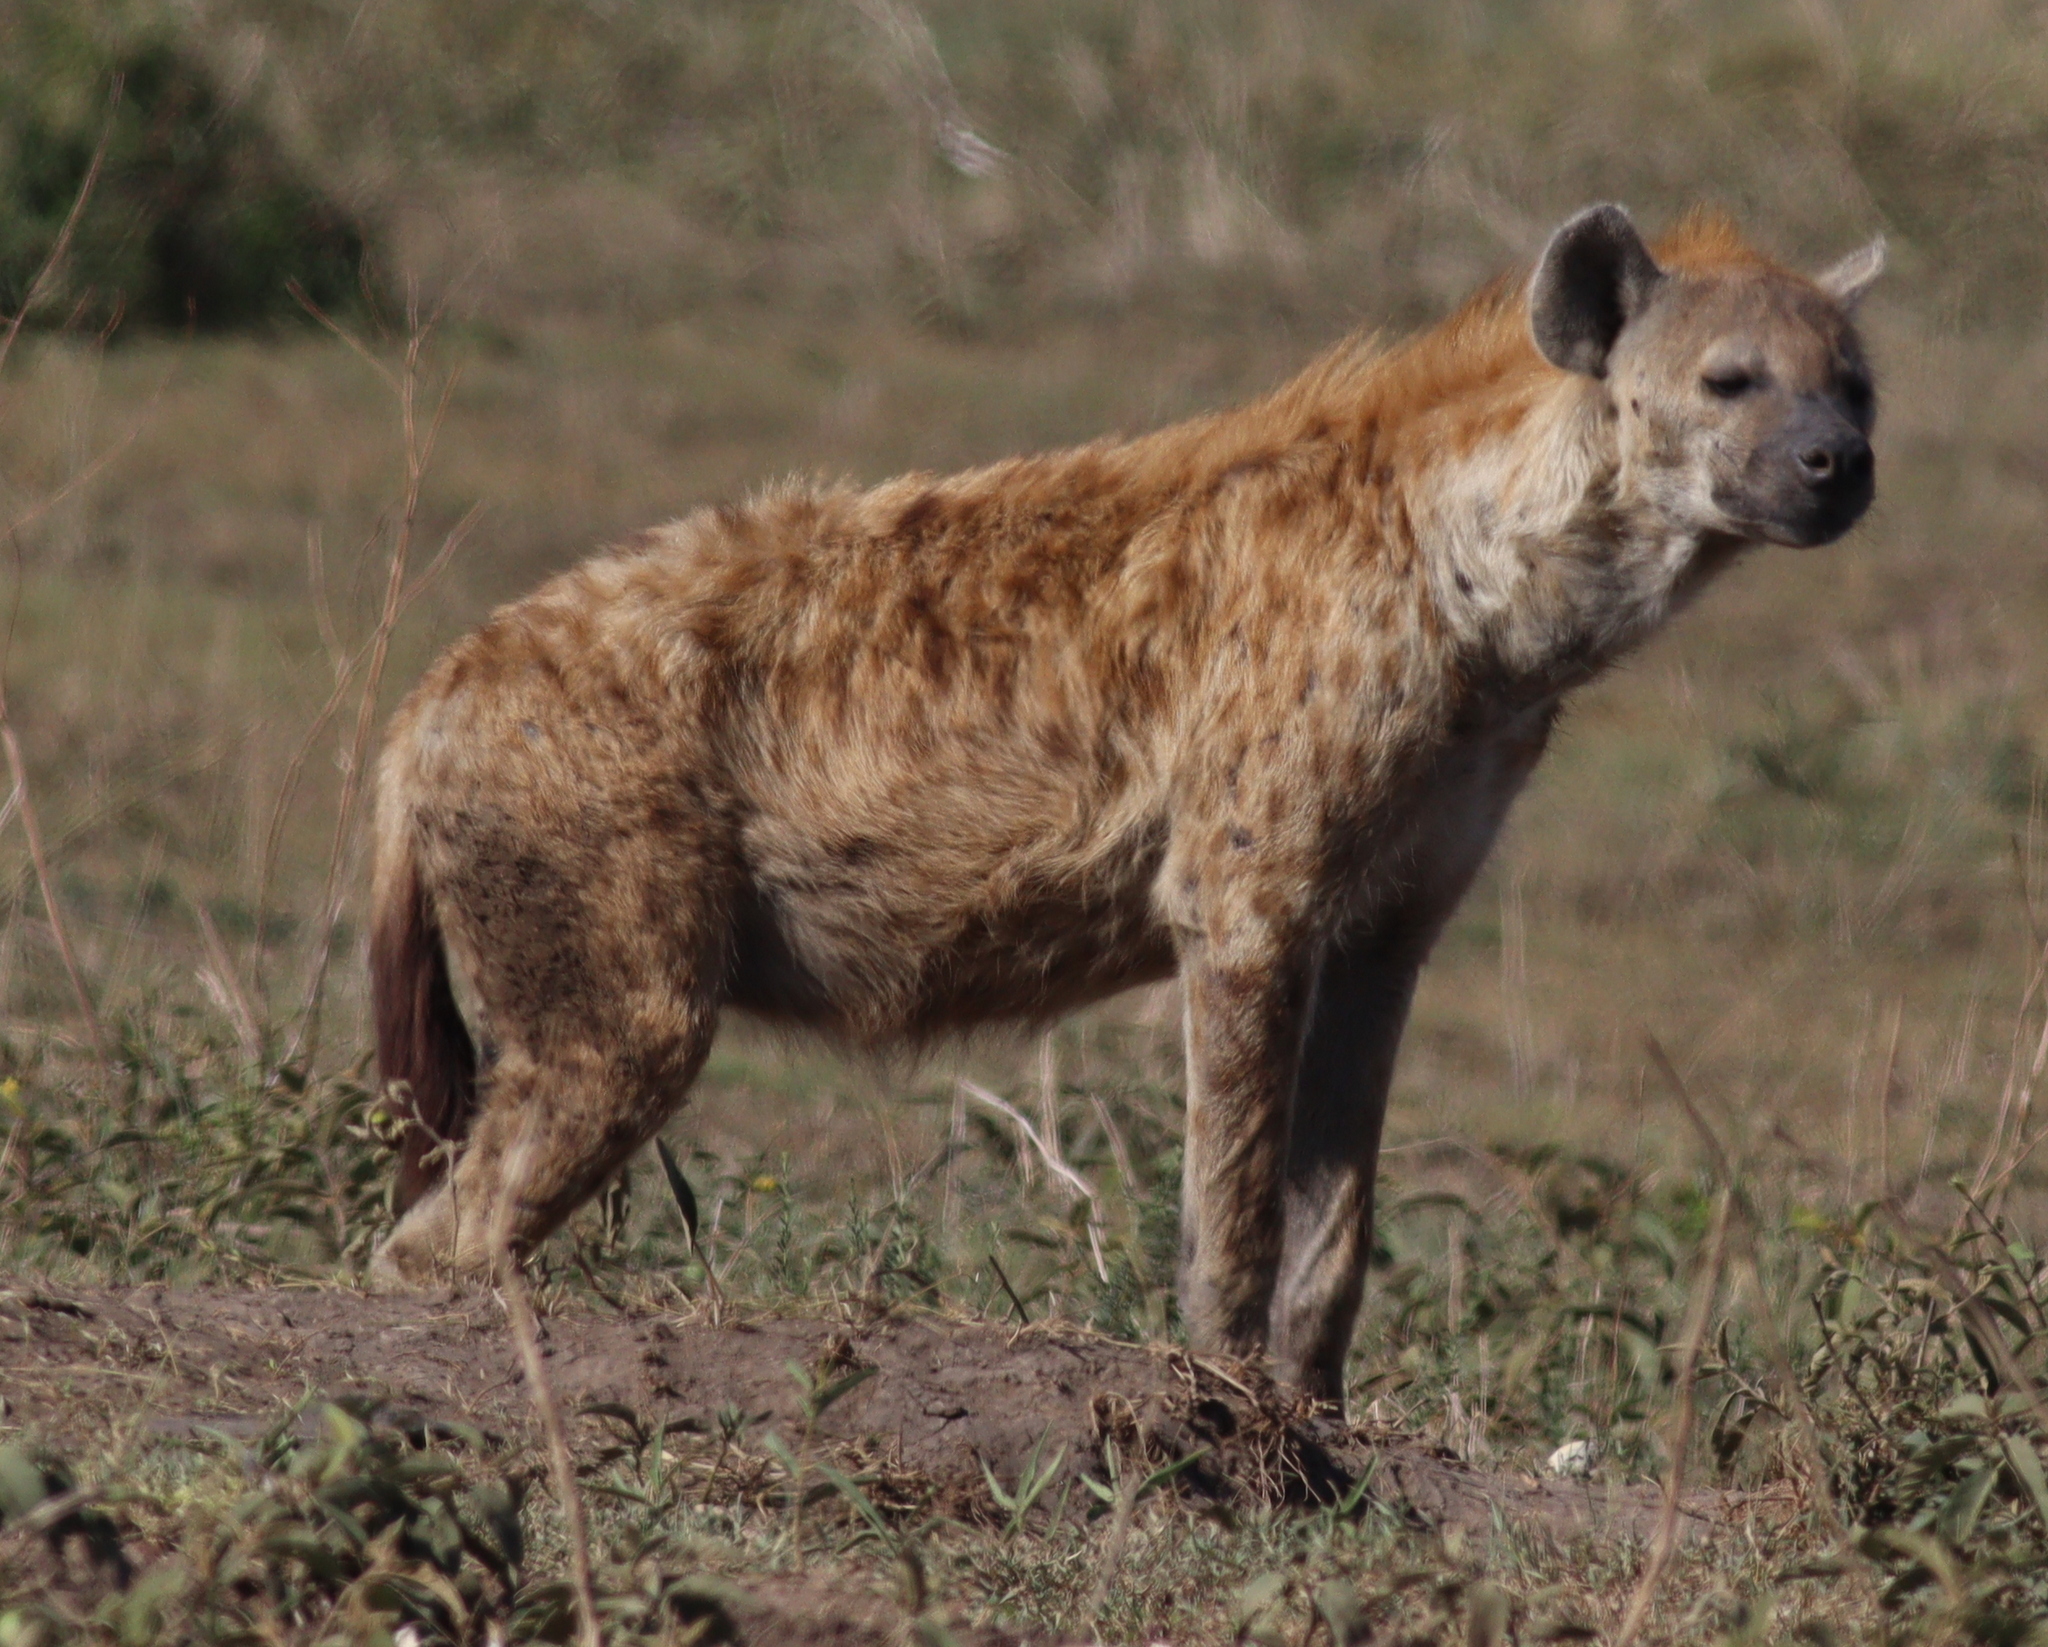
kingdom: Animalia
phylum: Chordata
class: Mammalia
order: Carnivora
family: Hyaenidae
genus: Crocuta
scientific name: Crocuta crocuta
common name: Spotted hyaena
